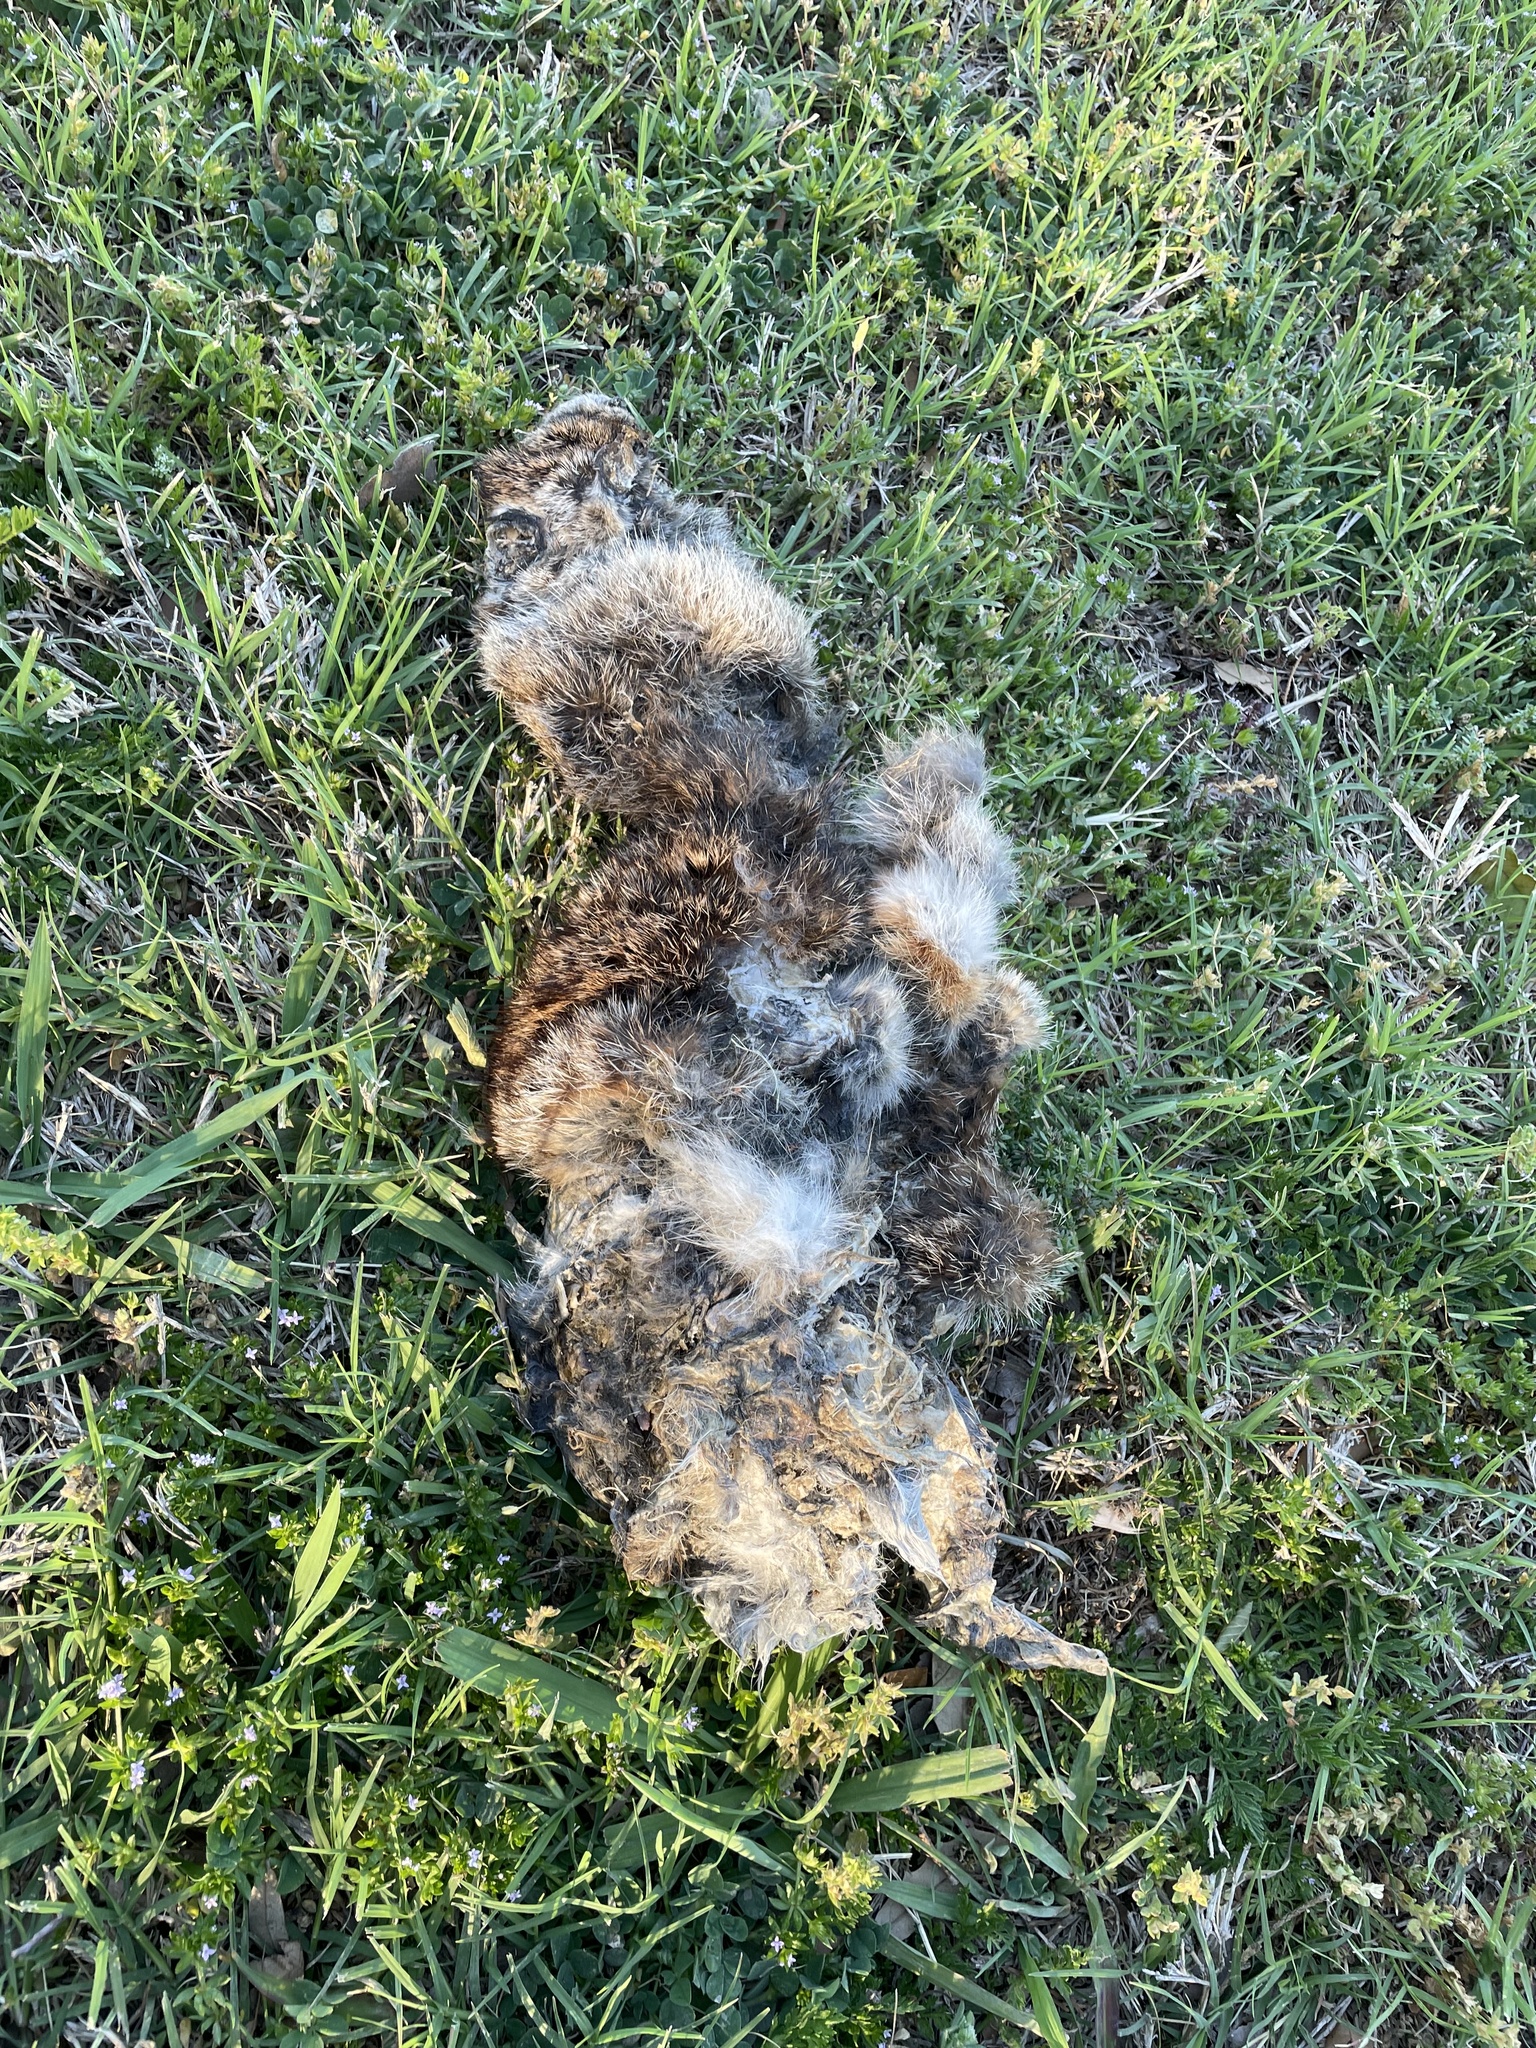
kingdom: Animalia
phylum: Chordata
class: Mammalia
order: Lagomorpha
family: Leporidae
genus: Sylvilagus
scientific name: Sylvilagus floridanus
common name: Eastern cottontail
